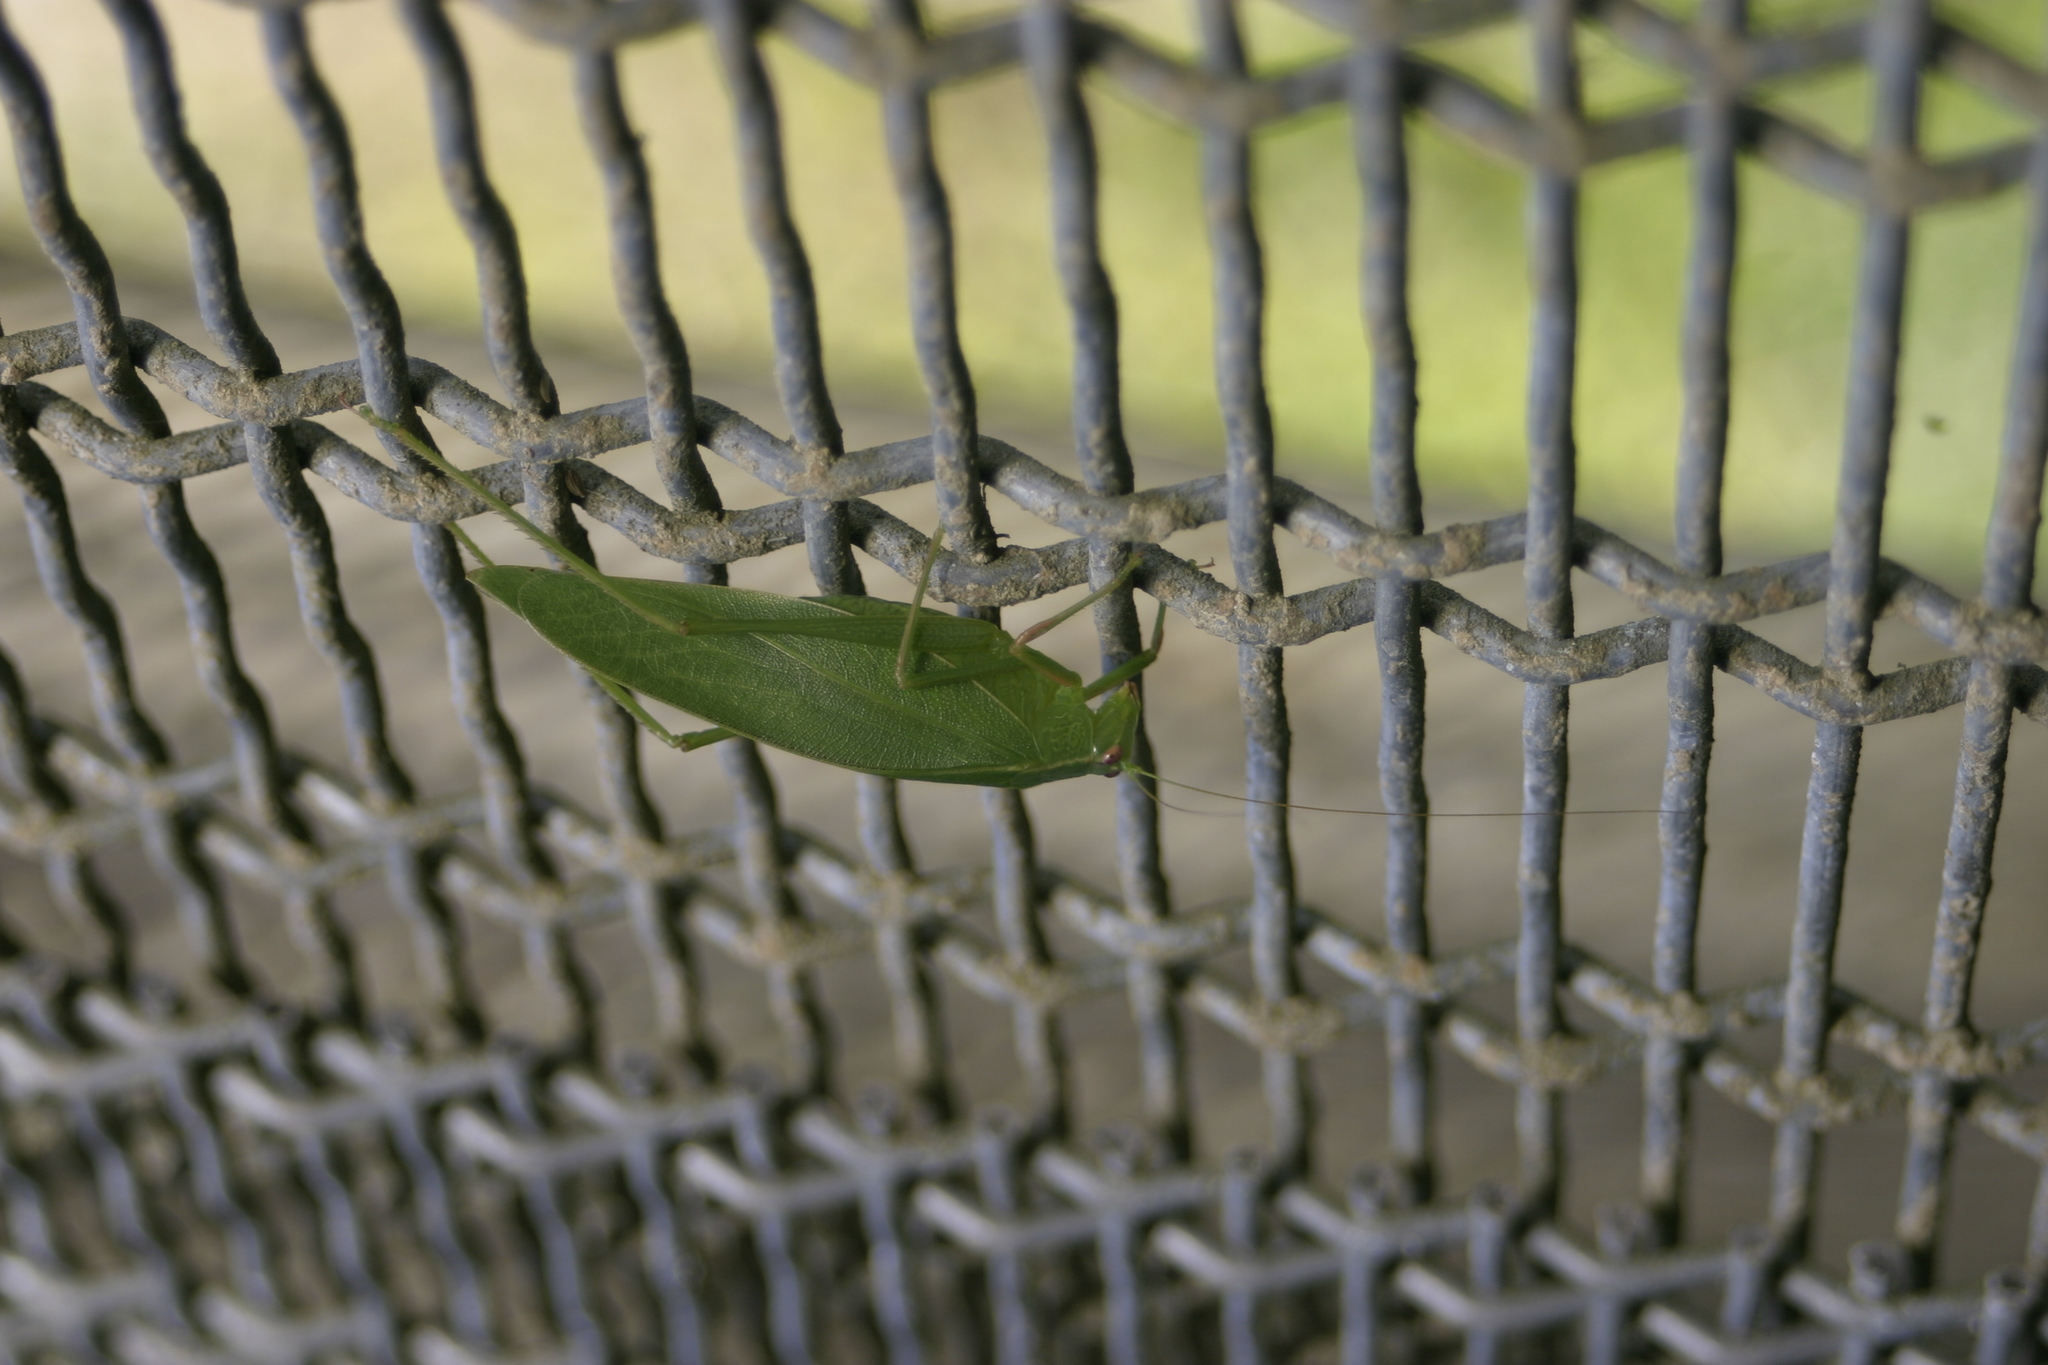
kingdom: Animalia
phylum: Arthropoda
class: Insecta
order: Orthoptera
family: Tettigoniidae
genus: Caedicia
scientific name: Caedicia simplex
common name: Common garden katydid
